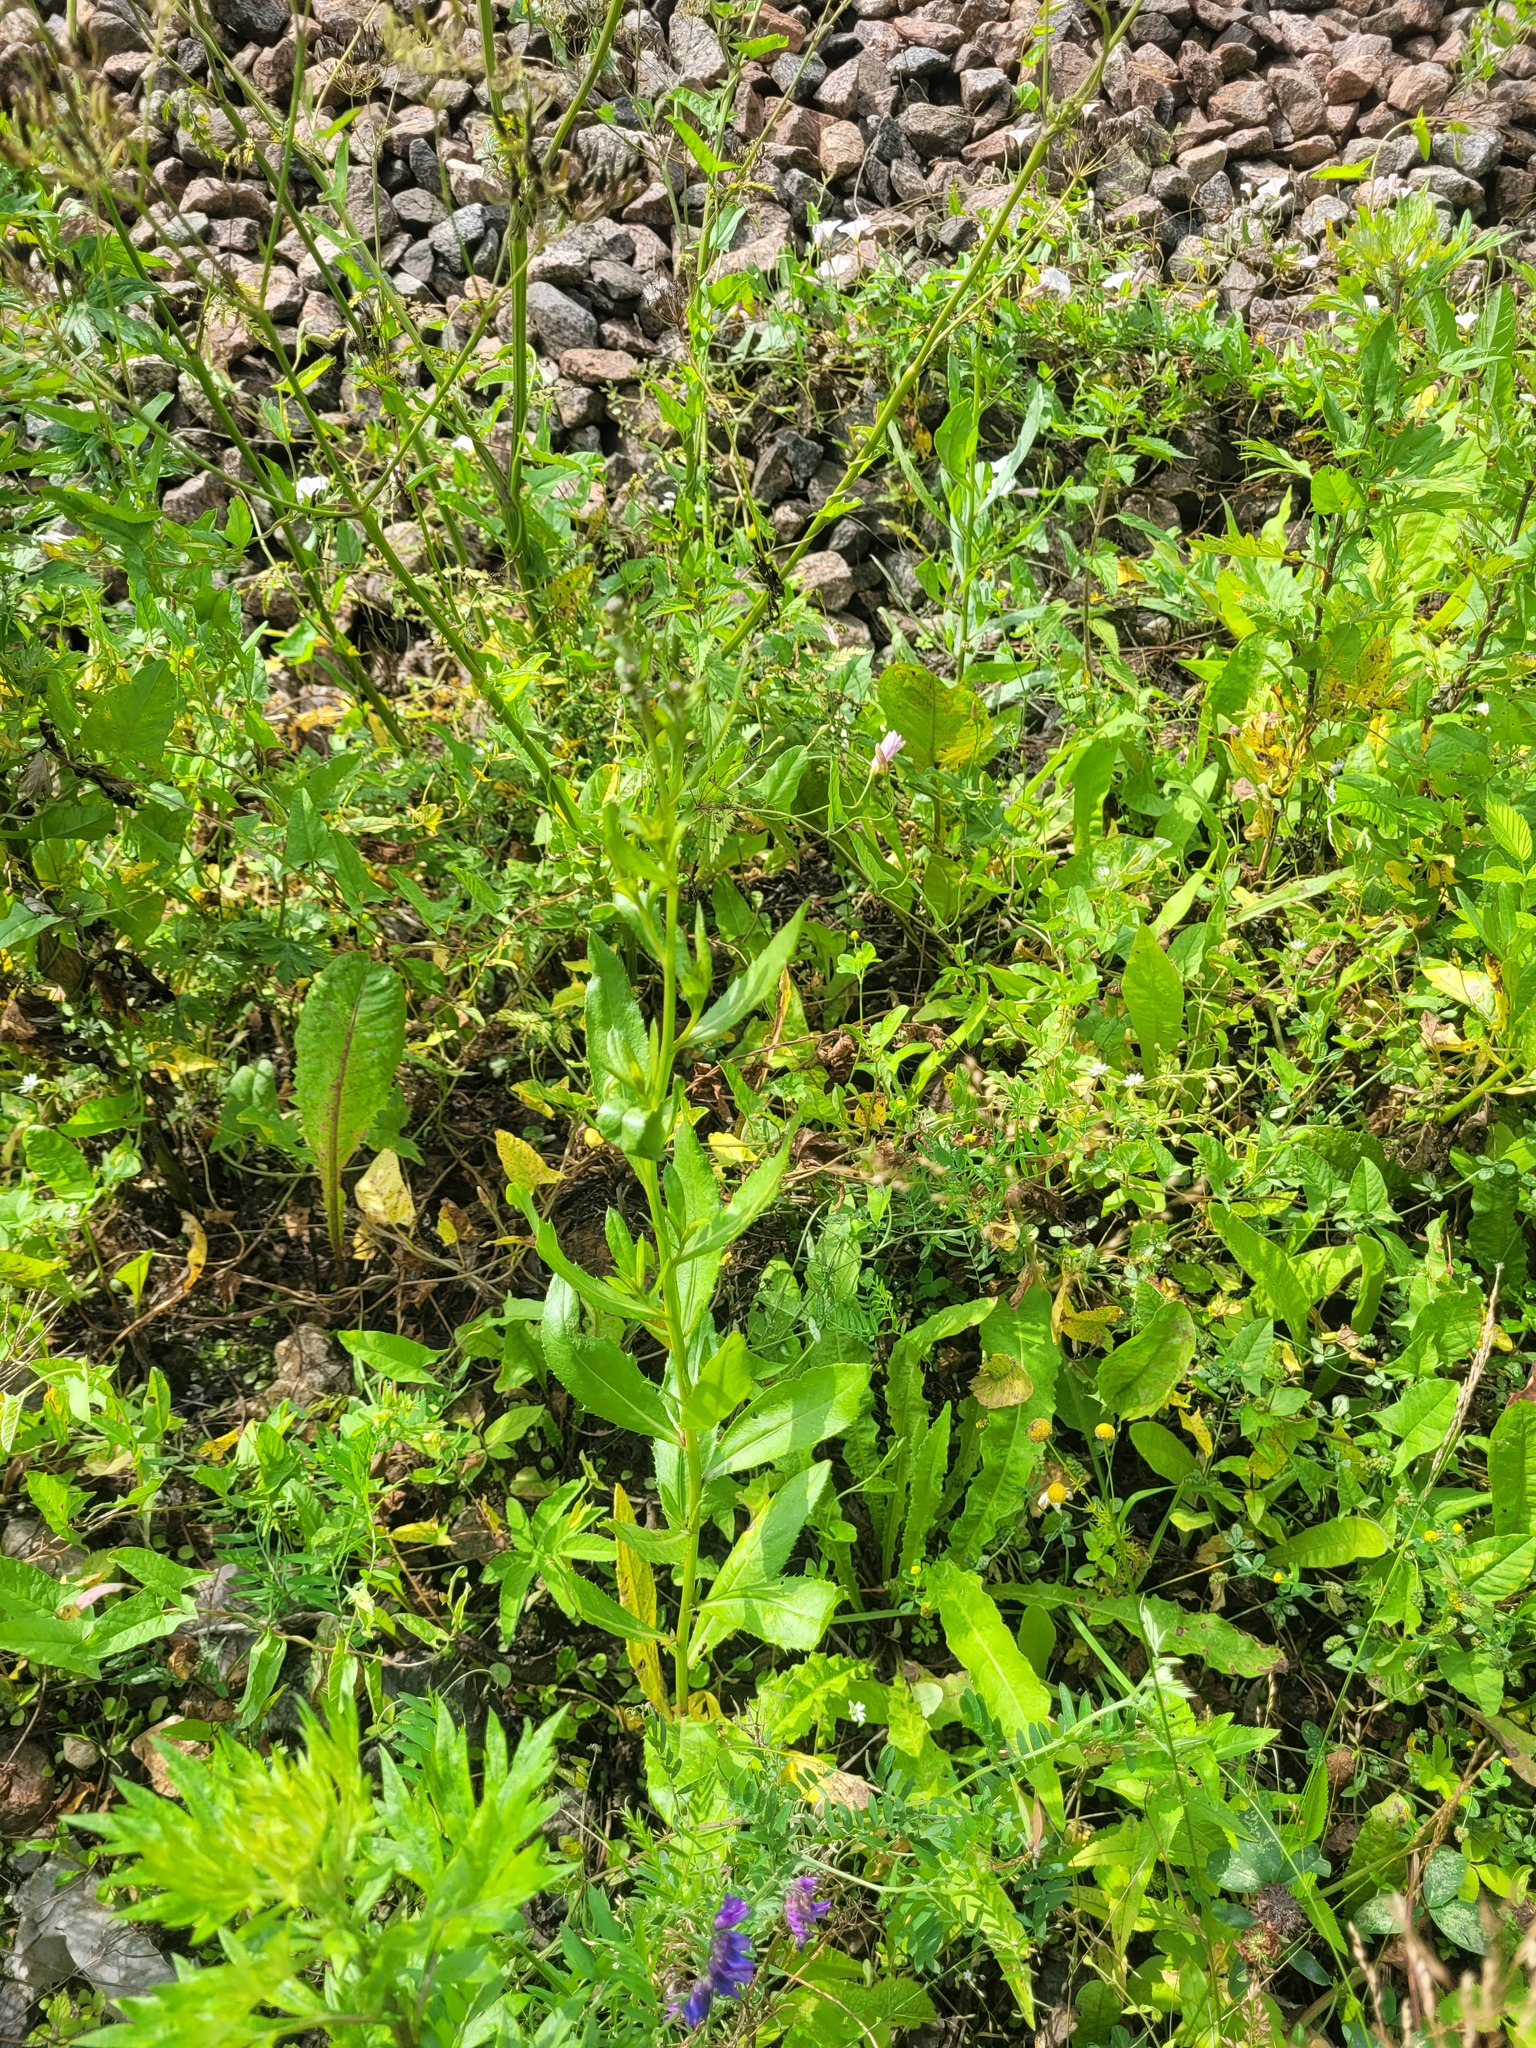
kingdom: Plantae
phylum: Tracheophyta
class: Magnoliopsida
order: Asterales
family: Asteraceae
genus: Cirsium
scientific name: Cirsium arvense
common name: Creeping thistle
